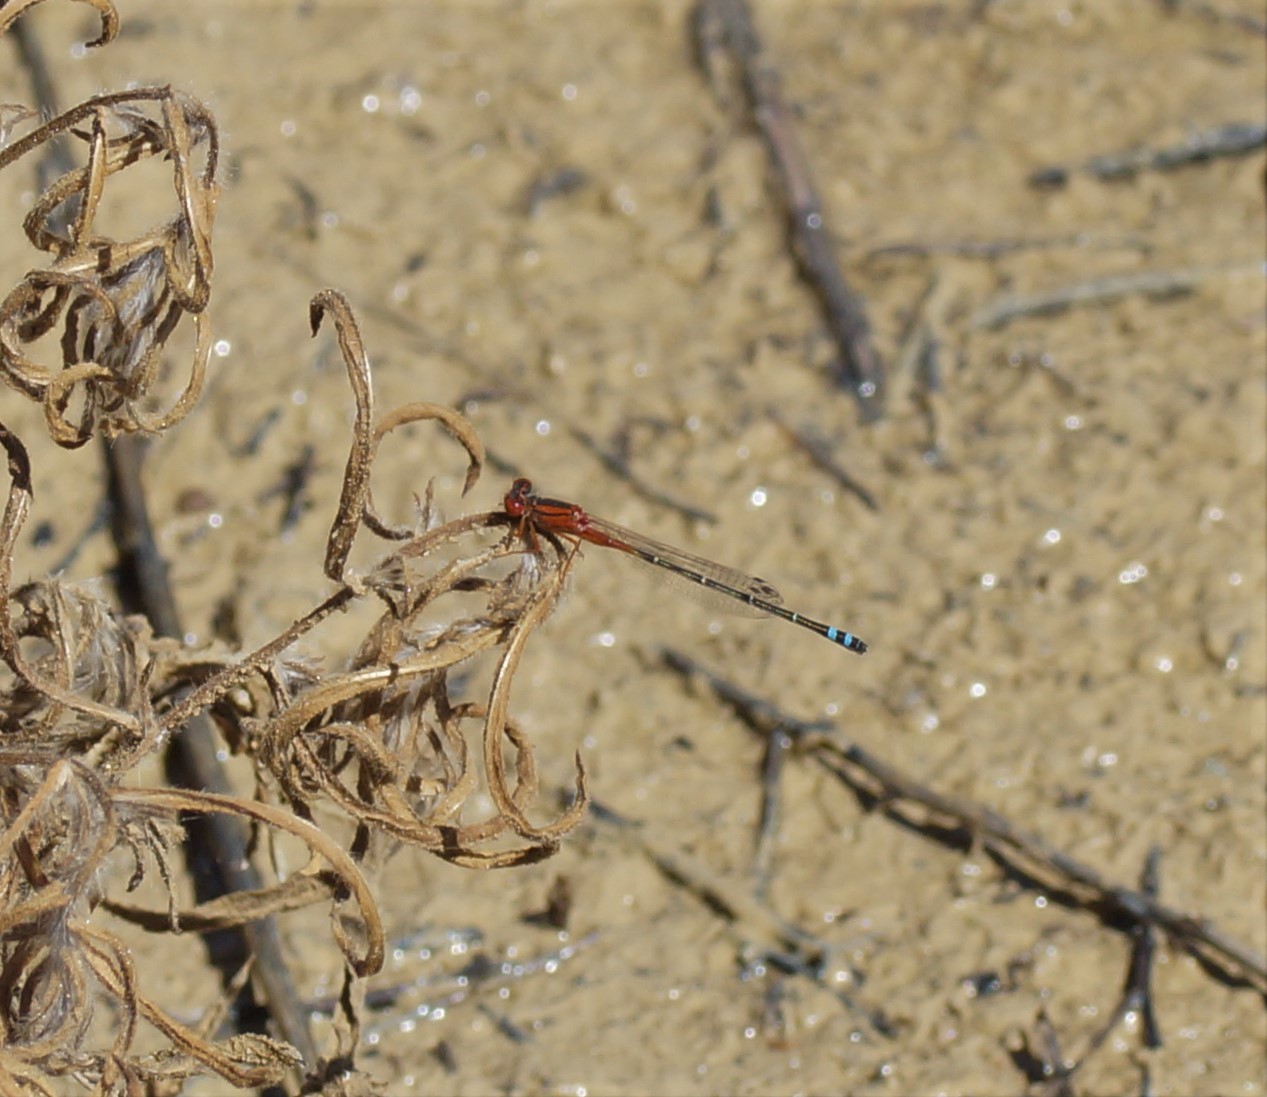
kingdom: Animalia
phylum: Arthropoda
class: Insecta
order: Odonata
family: Coenagrionidae
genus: Xanthagrion
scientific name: Xanthagrion erythroneurum
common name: Red and blue damsel
